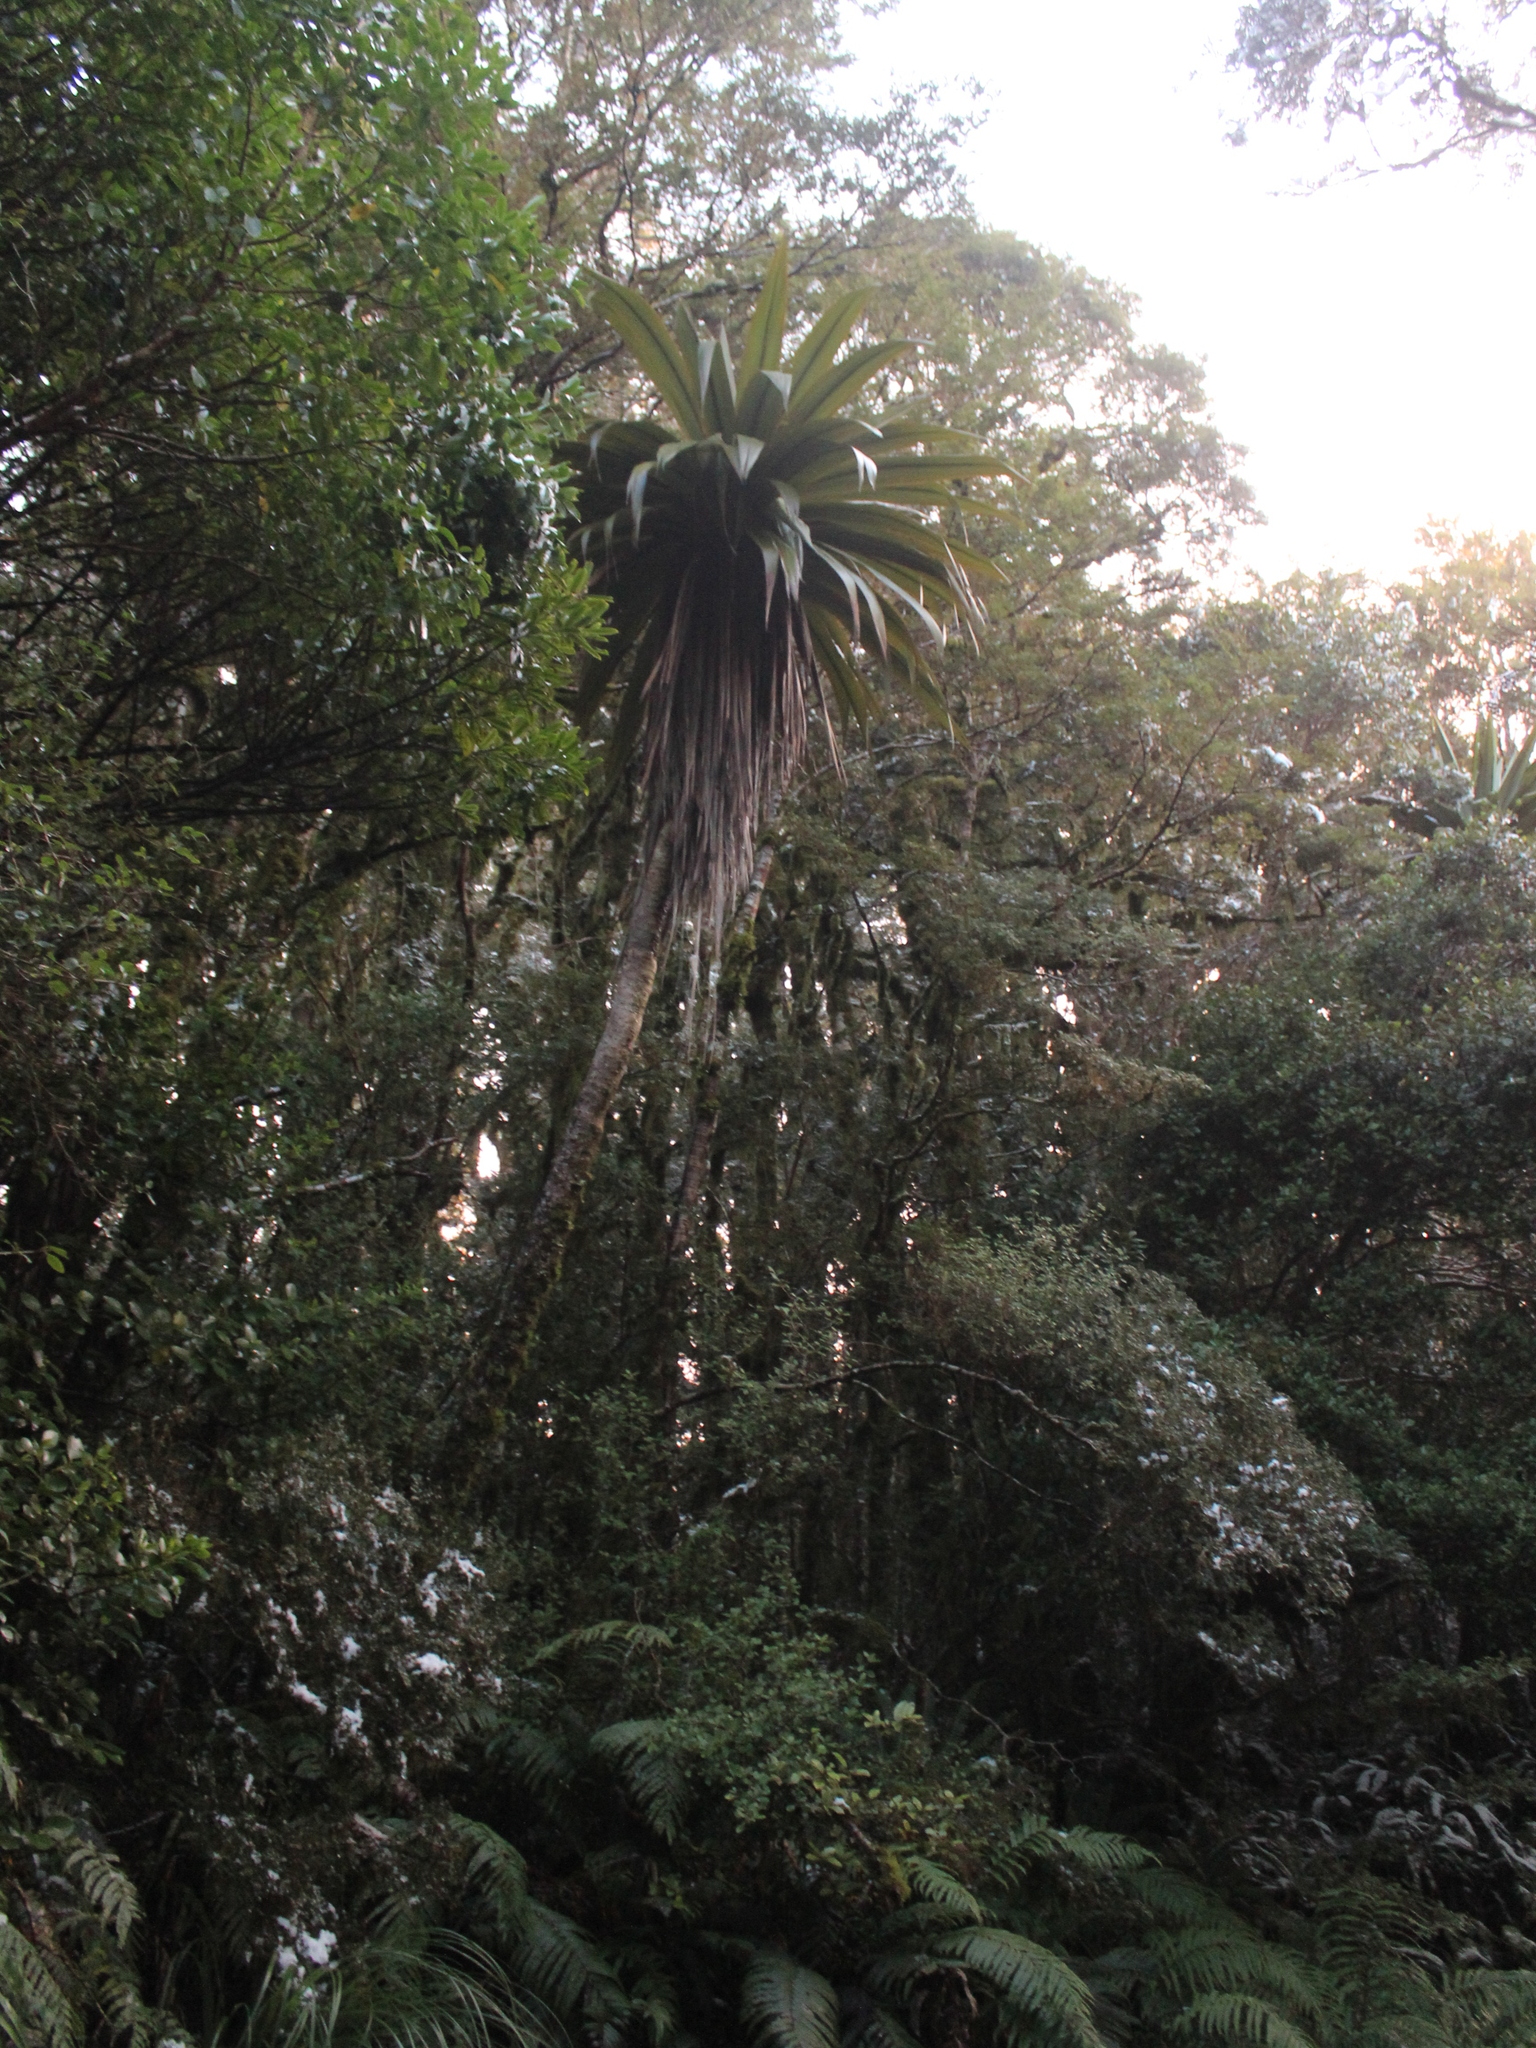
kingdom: Plantae
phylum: Tracheophyta
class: Liliopsida
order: Asparagales
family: Asparagaceae
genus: Cordyline
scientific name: Cordyline indivisa
